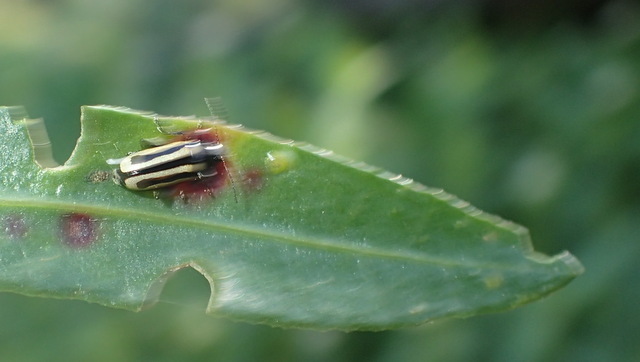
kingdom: Animalia
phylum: Arthropoda
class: Insecta
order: Coleoptera
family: Chrysomelidae
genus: Agasicles
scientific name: Agasicles hygrophila
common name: Alligatorweed flea beetle
